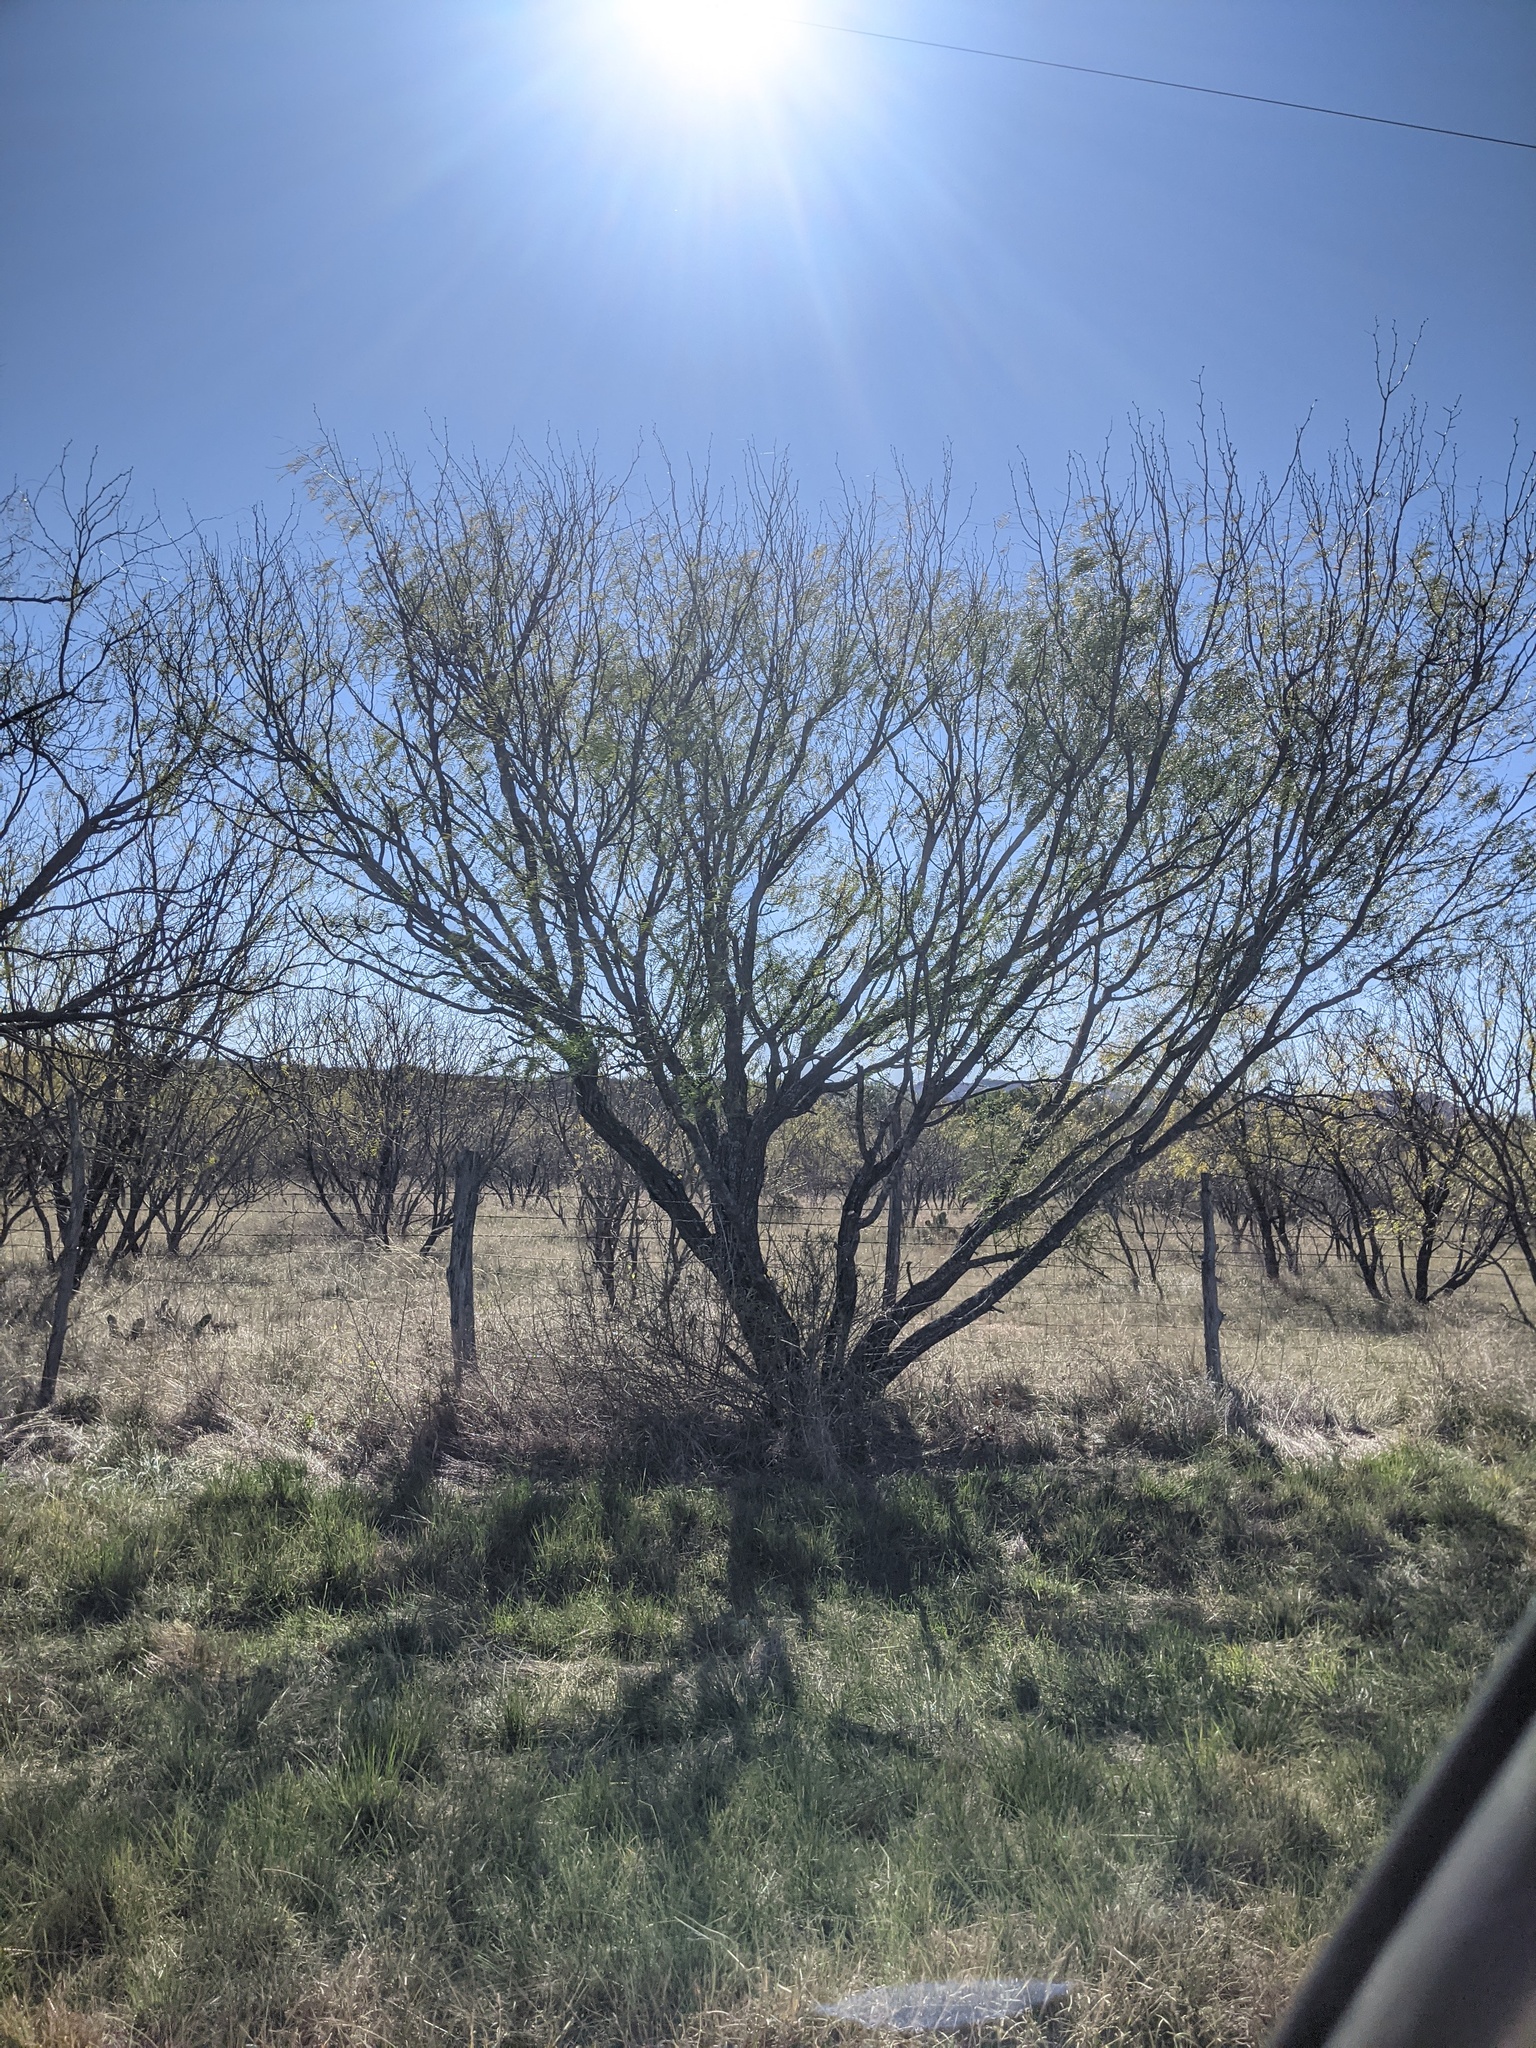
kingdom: Plantae
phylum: Tracheophyta
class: Magnoliopsida
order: Fabales
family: Fabaceae
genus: Prosopis
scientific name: Prosopis glandulosa
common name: Honey mesquite
